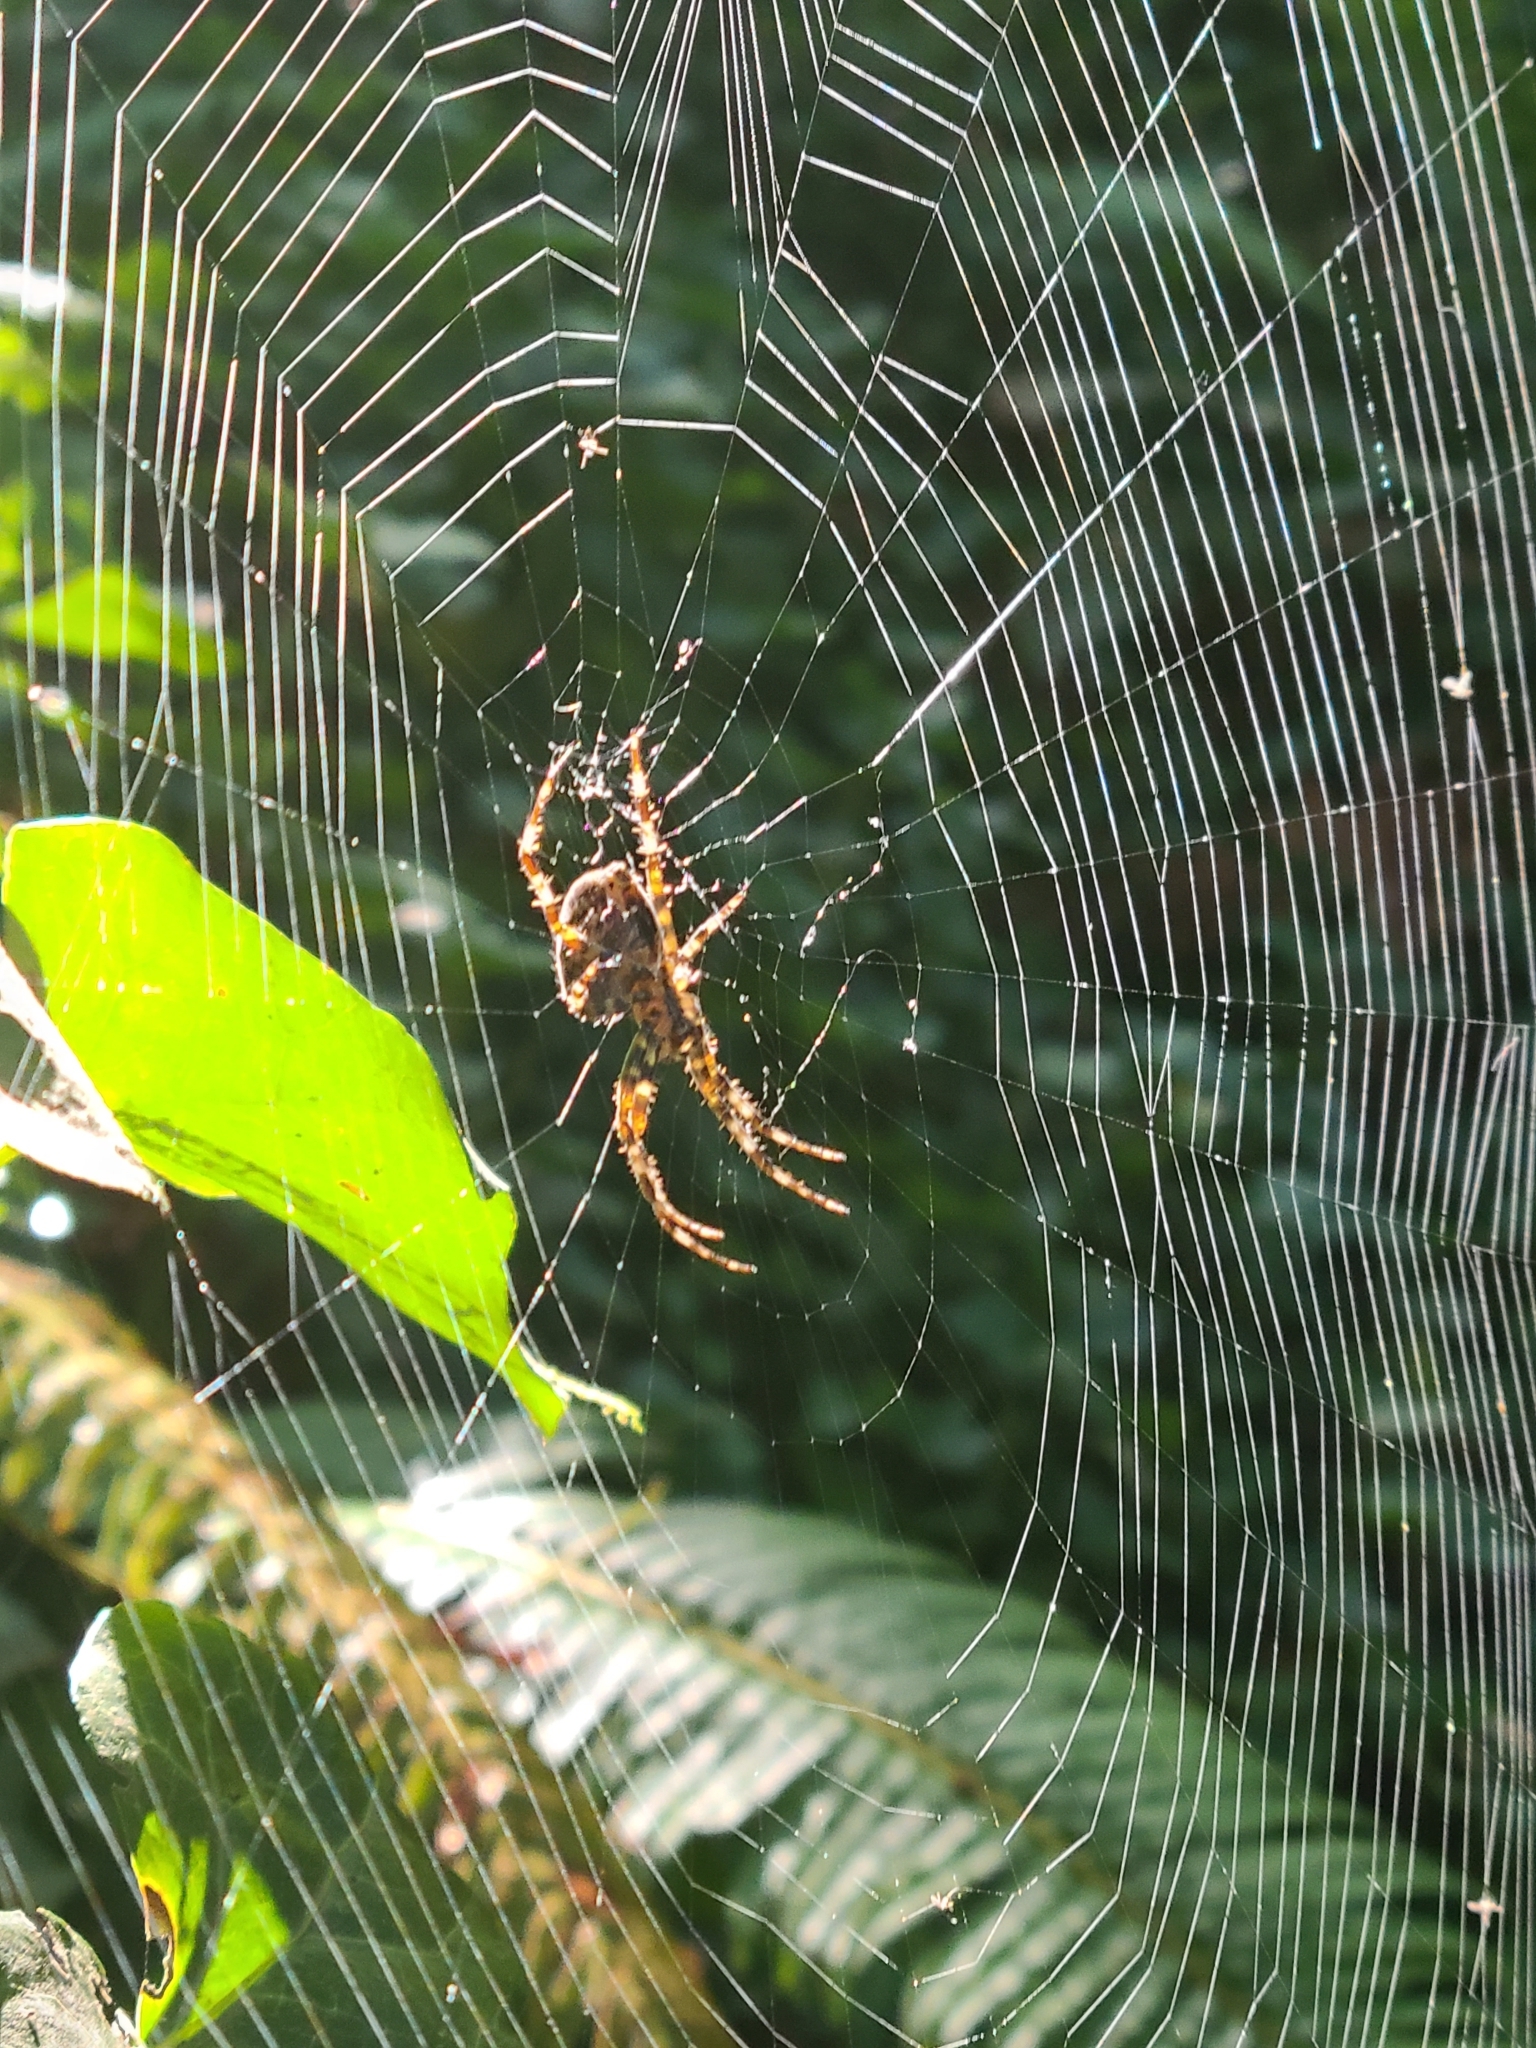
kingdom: Animalia
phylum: Arthropoda
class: Arachnida
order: Araneae
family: Araneidae
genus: Araneus
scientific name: Araneus diadematus
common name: Cross orbweaver
